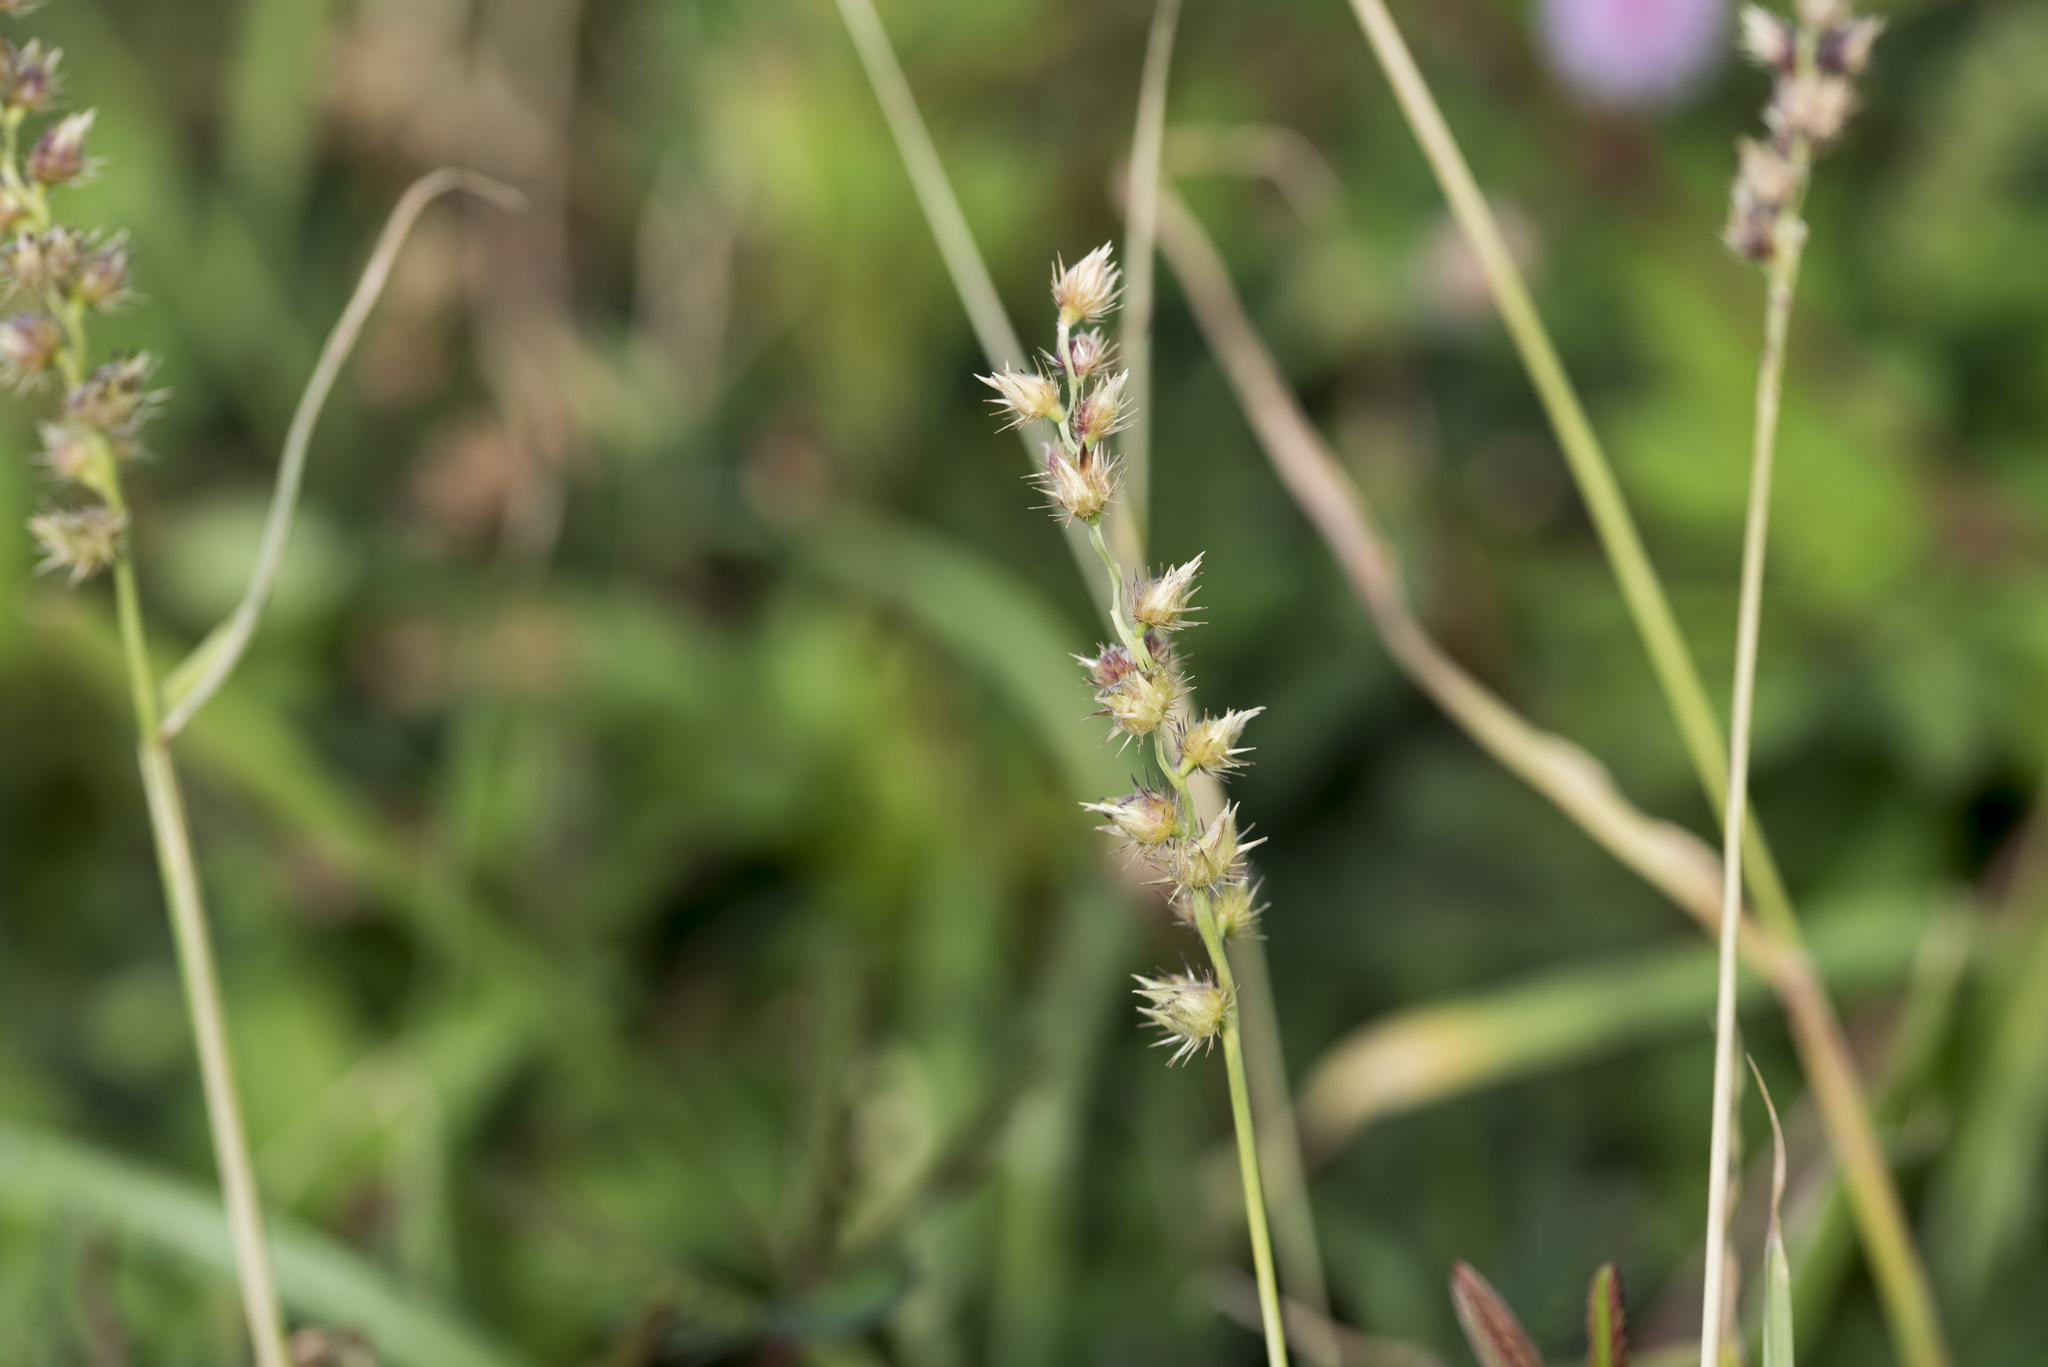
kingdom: Plantae
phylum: Tracheophyta
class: Liliopsida
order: Poales
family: Poaceae
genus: Cenchrus
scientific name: Cenchrus echinatus
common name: Southern sandbur
